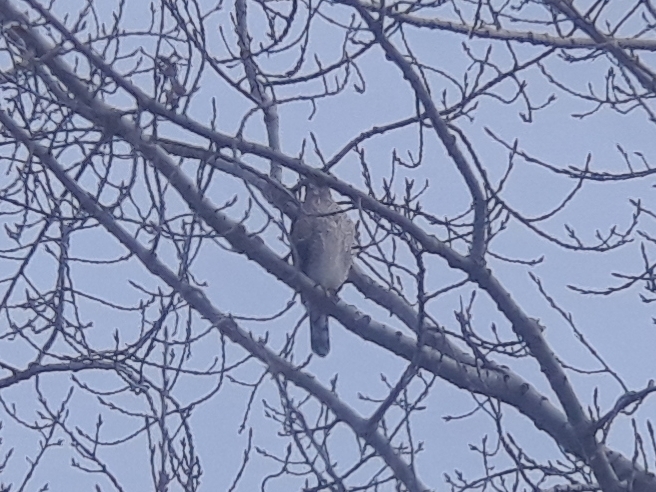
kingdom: Animalia
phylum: Chordata
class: Aves
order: Accipitriformes
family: Accipitridae
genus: Accipiter
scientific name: Accipiter cooperii
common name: Cooper's hawk
